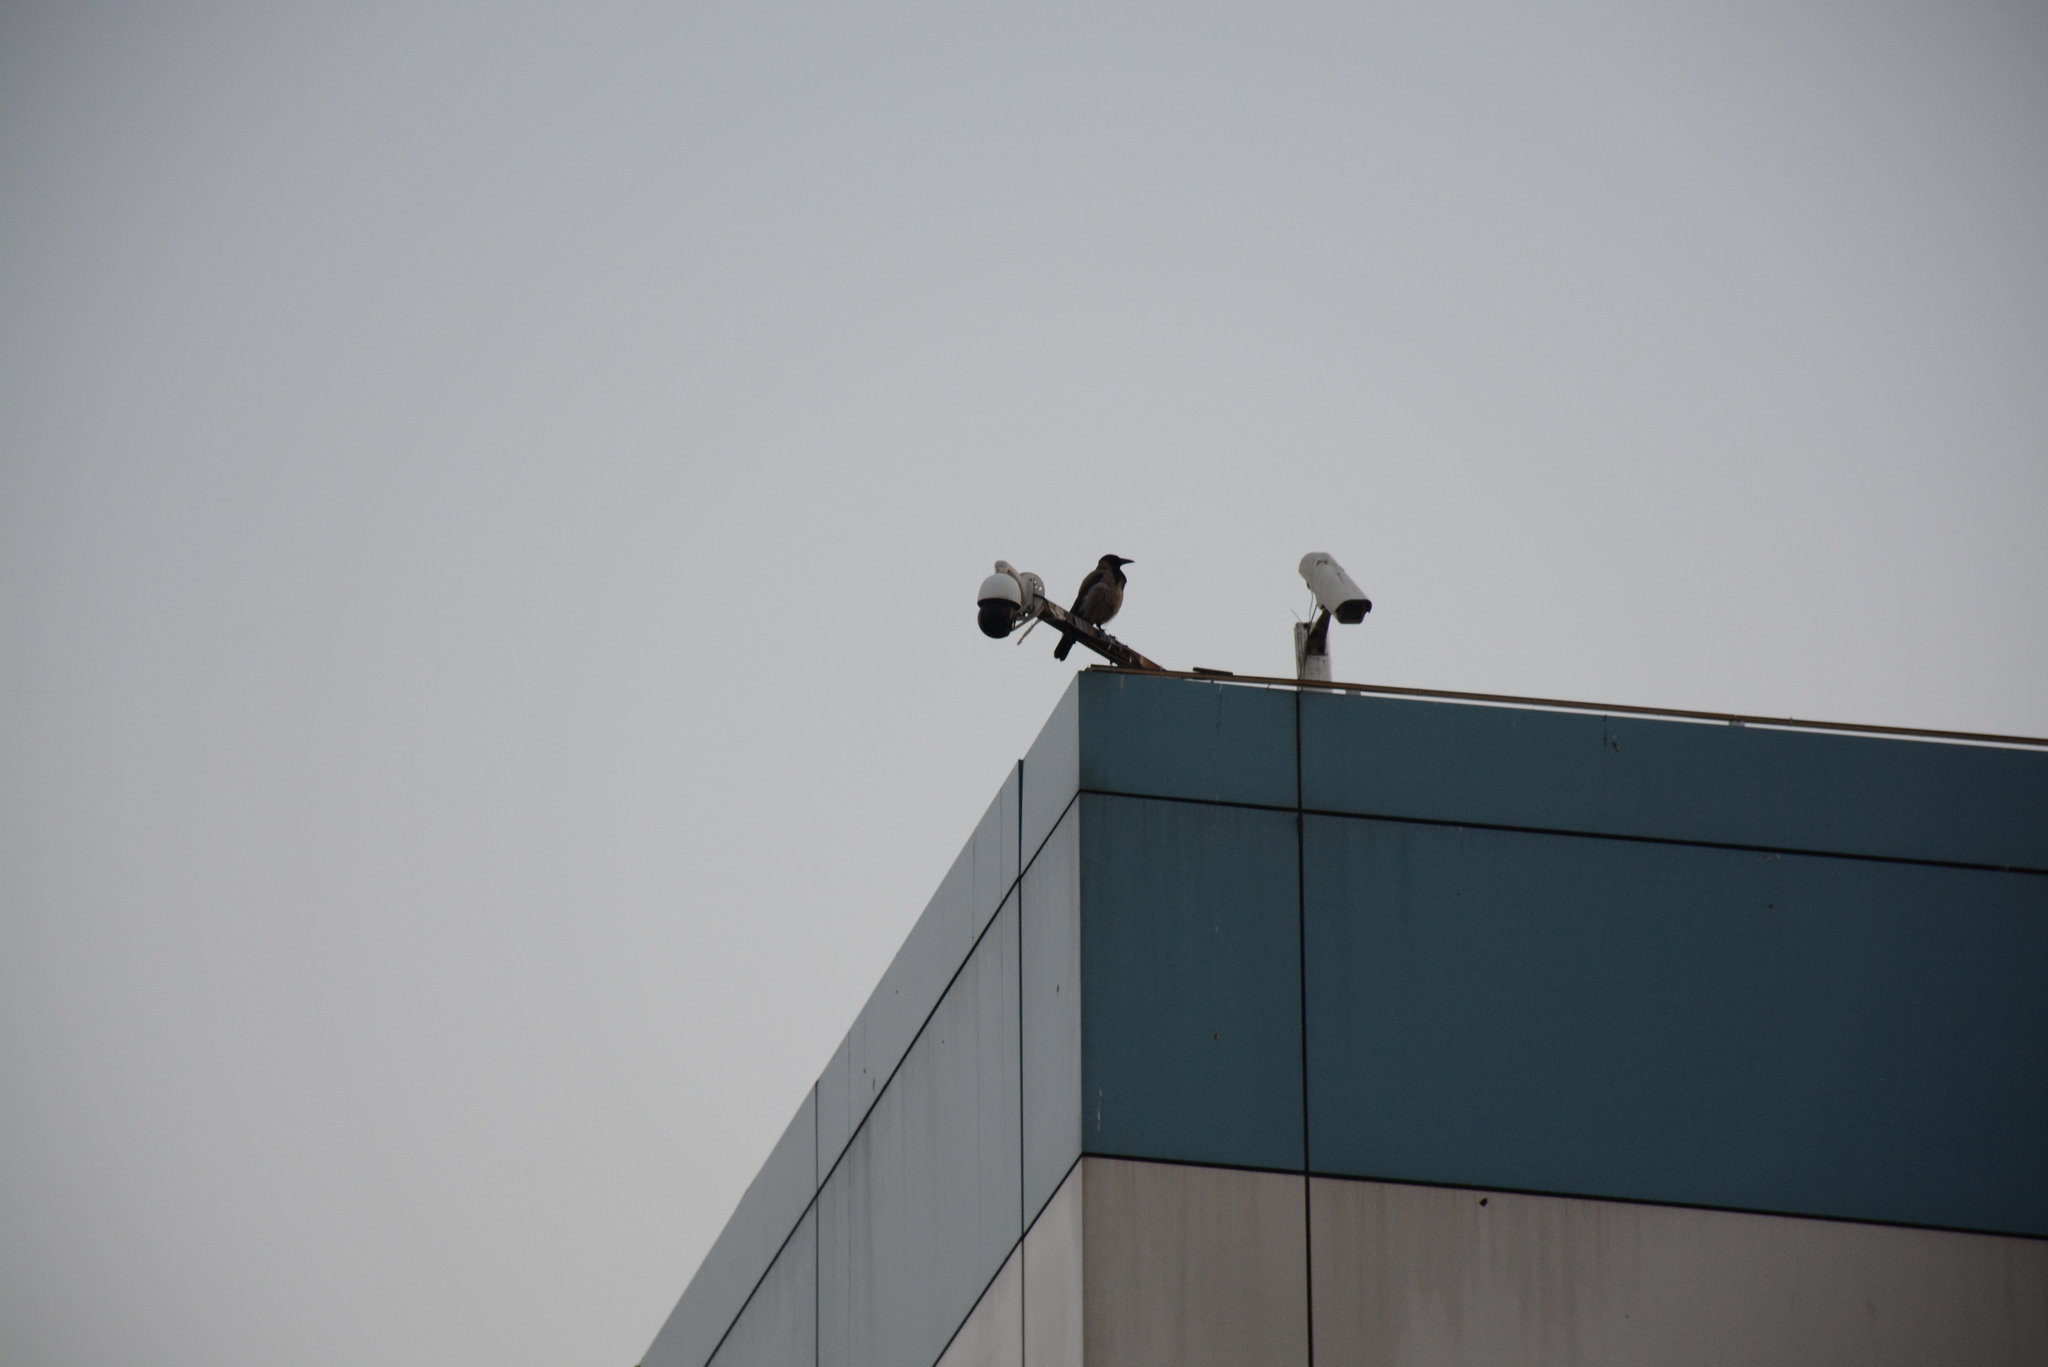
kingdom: Animalia
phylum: Chordata
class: Aves
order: Passeriformes
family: Corvidae
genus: Corvus
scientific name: Corvus cornix
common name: Hooded crow
